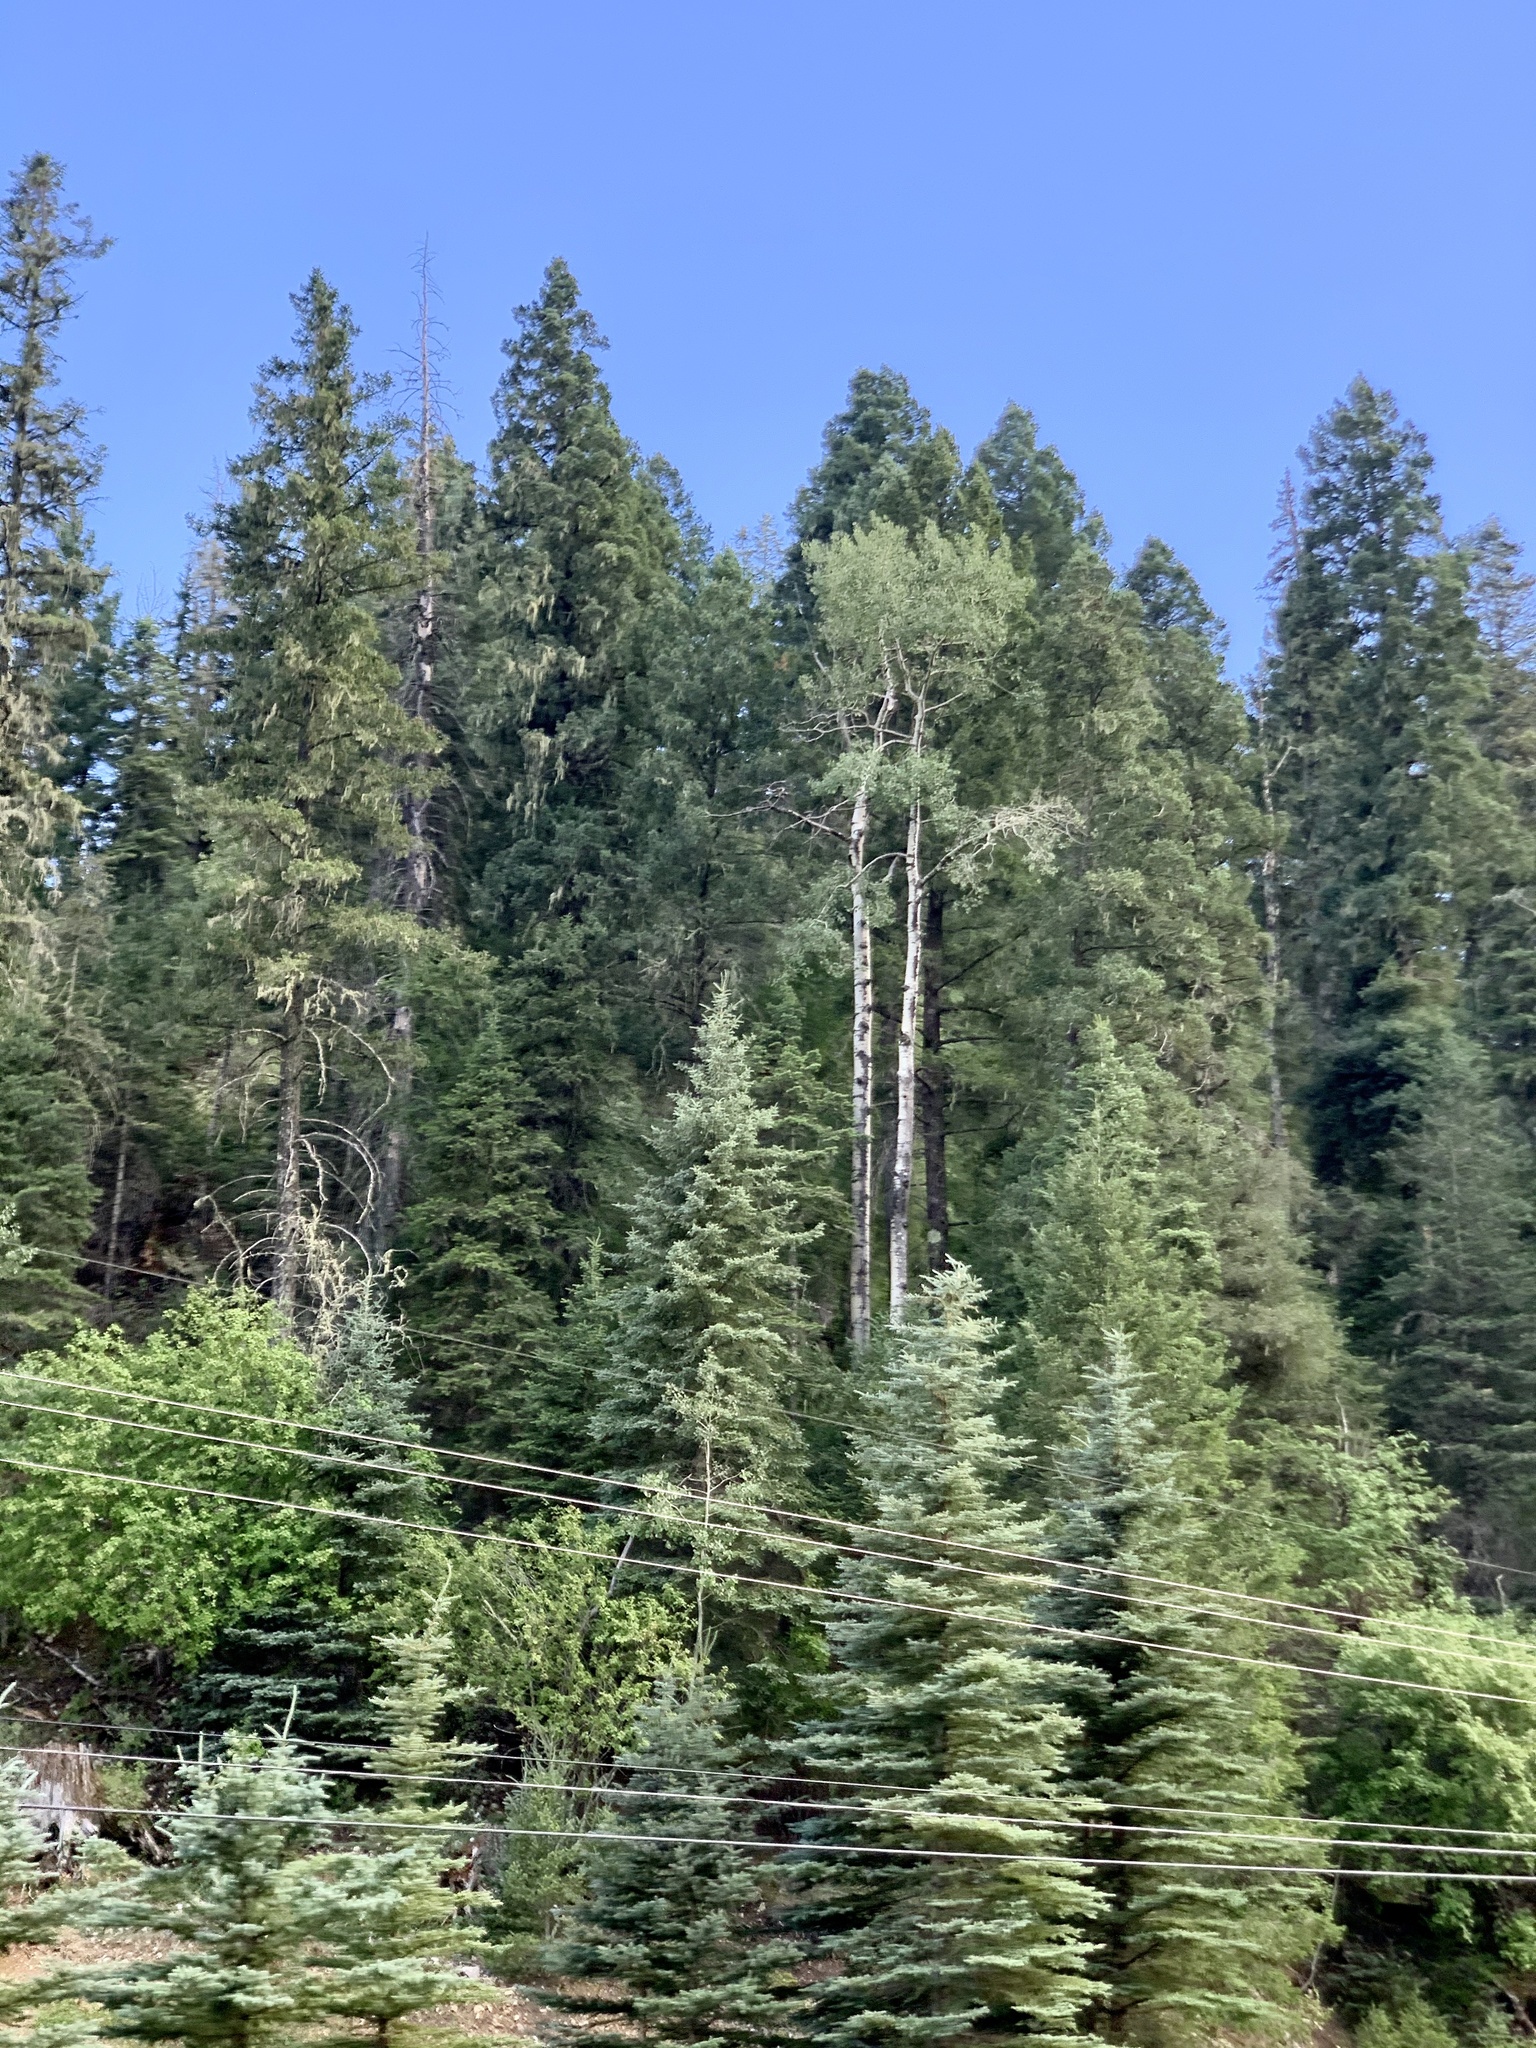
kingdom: Plantae
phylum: Tracheophyta
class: Magnoliopsida
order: Malpighiales
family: Salicaceae
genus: Populus
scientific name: Populus tremuloides
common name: Quaking aspen
